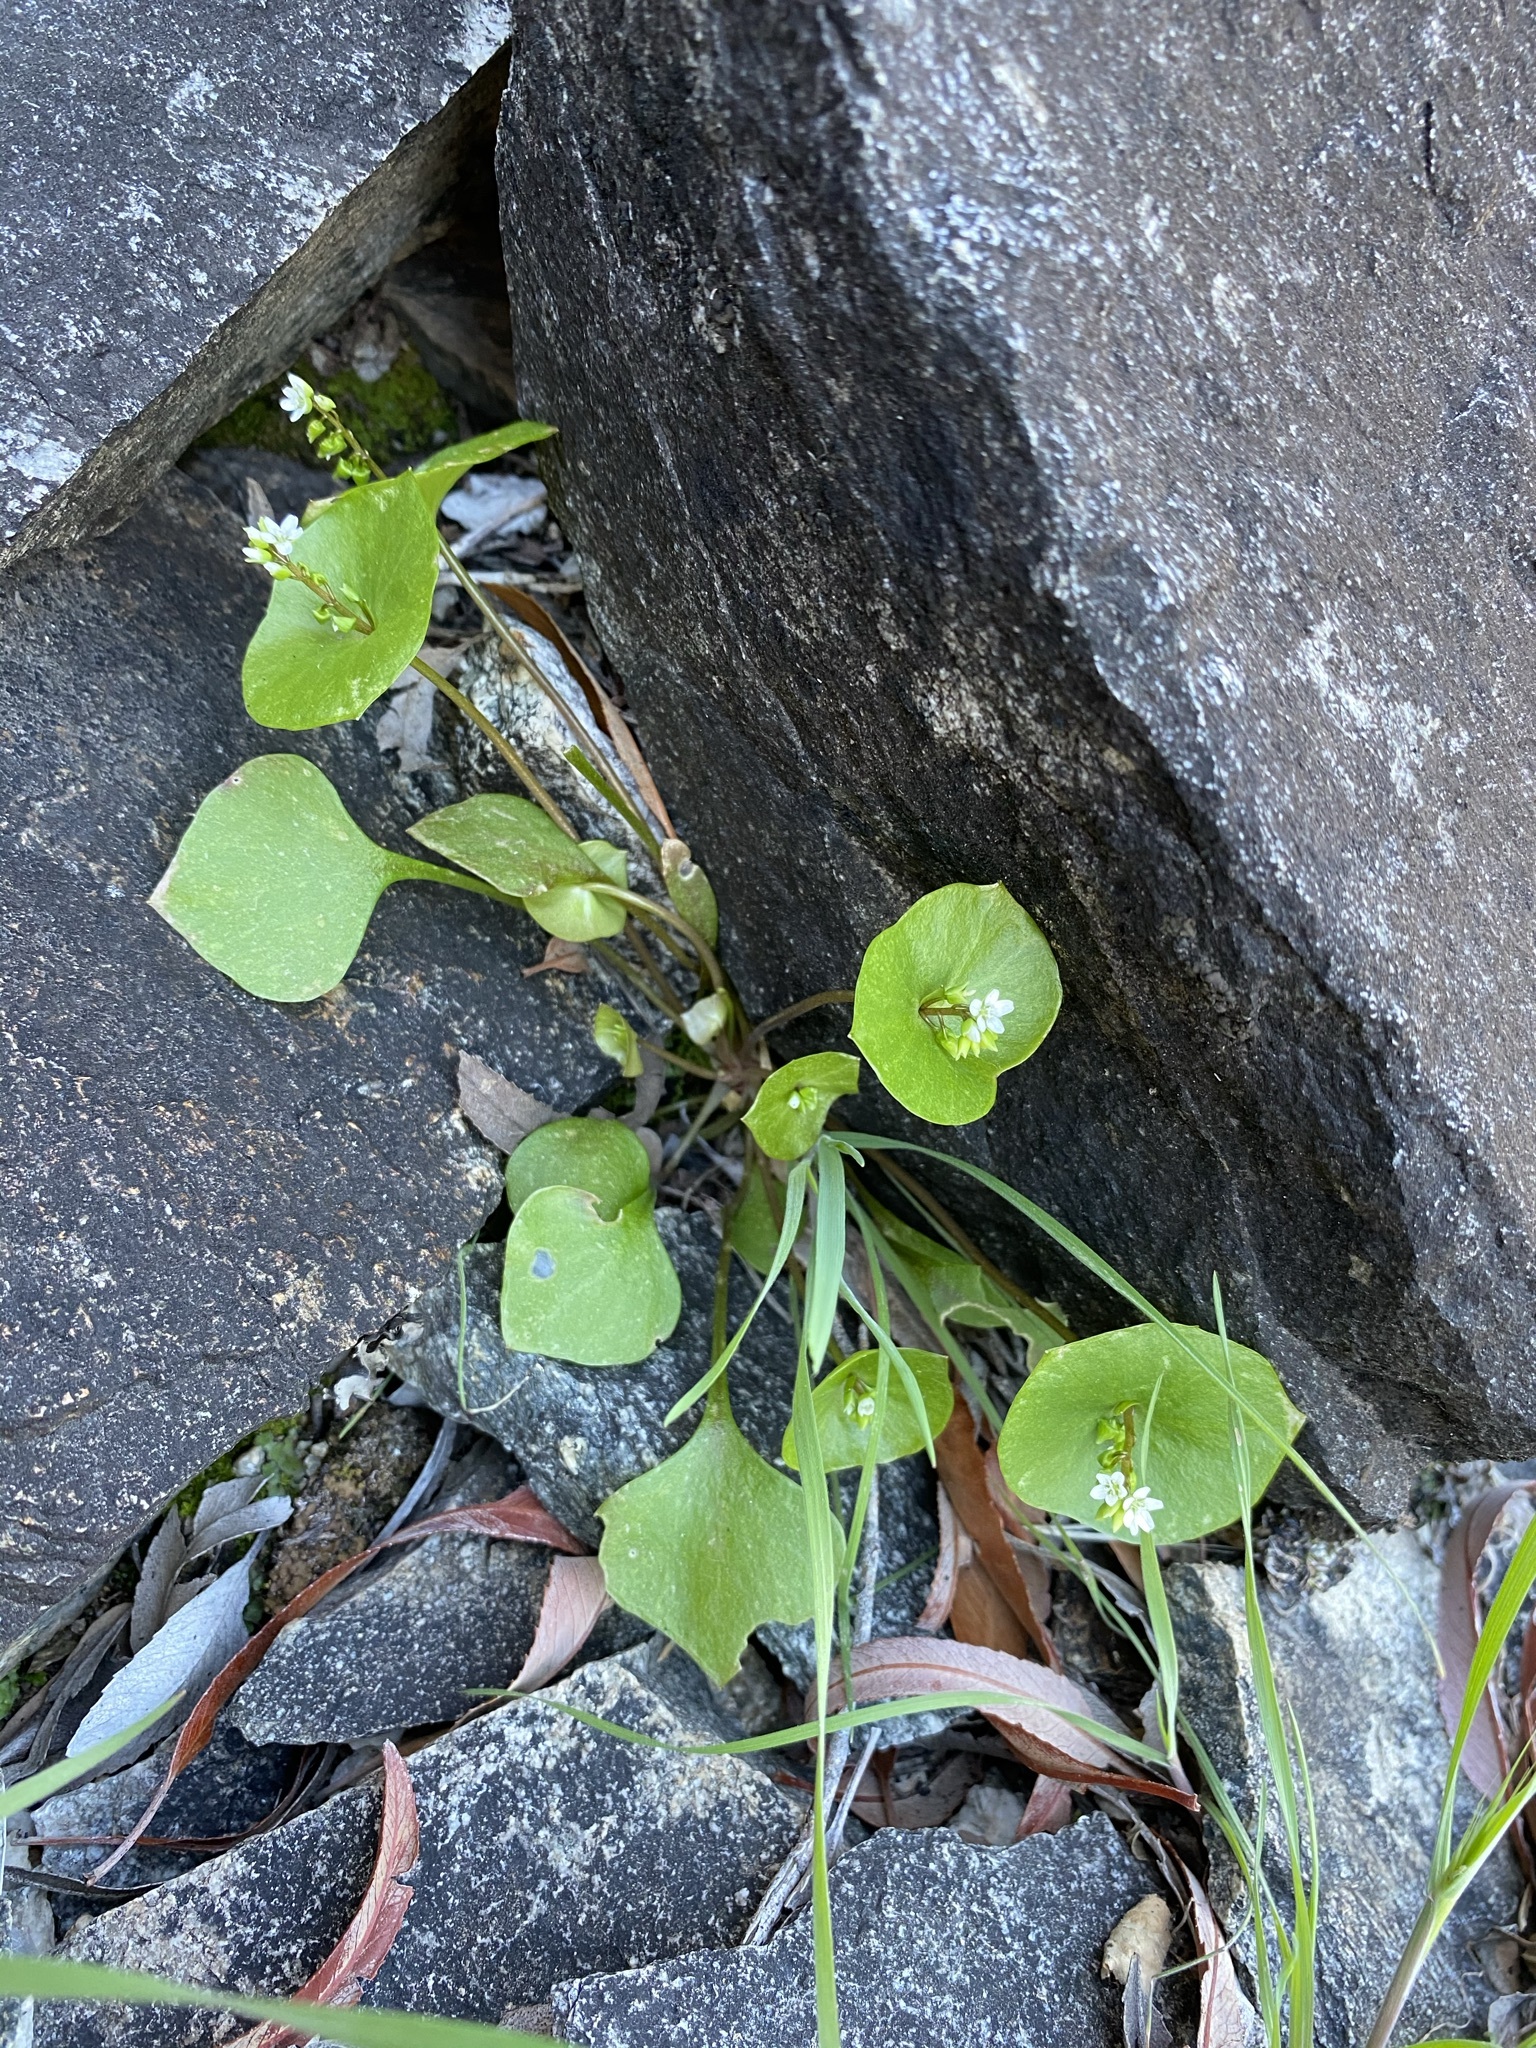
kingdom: Plantae
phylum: Tracheophyta
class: Magnoliopsida
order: Caryophyllales
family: Montiaceae
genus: Claytonia
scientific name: Claytonia perfoliata
